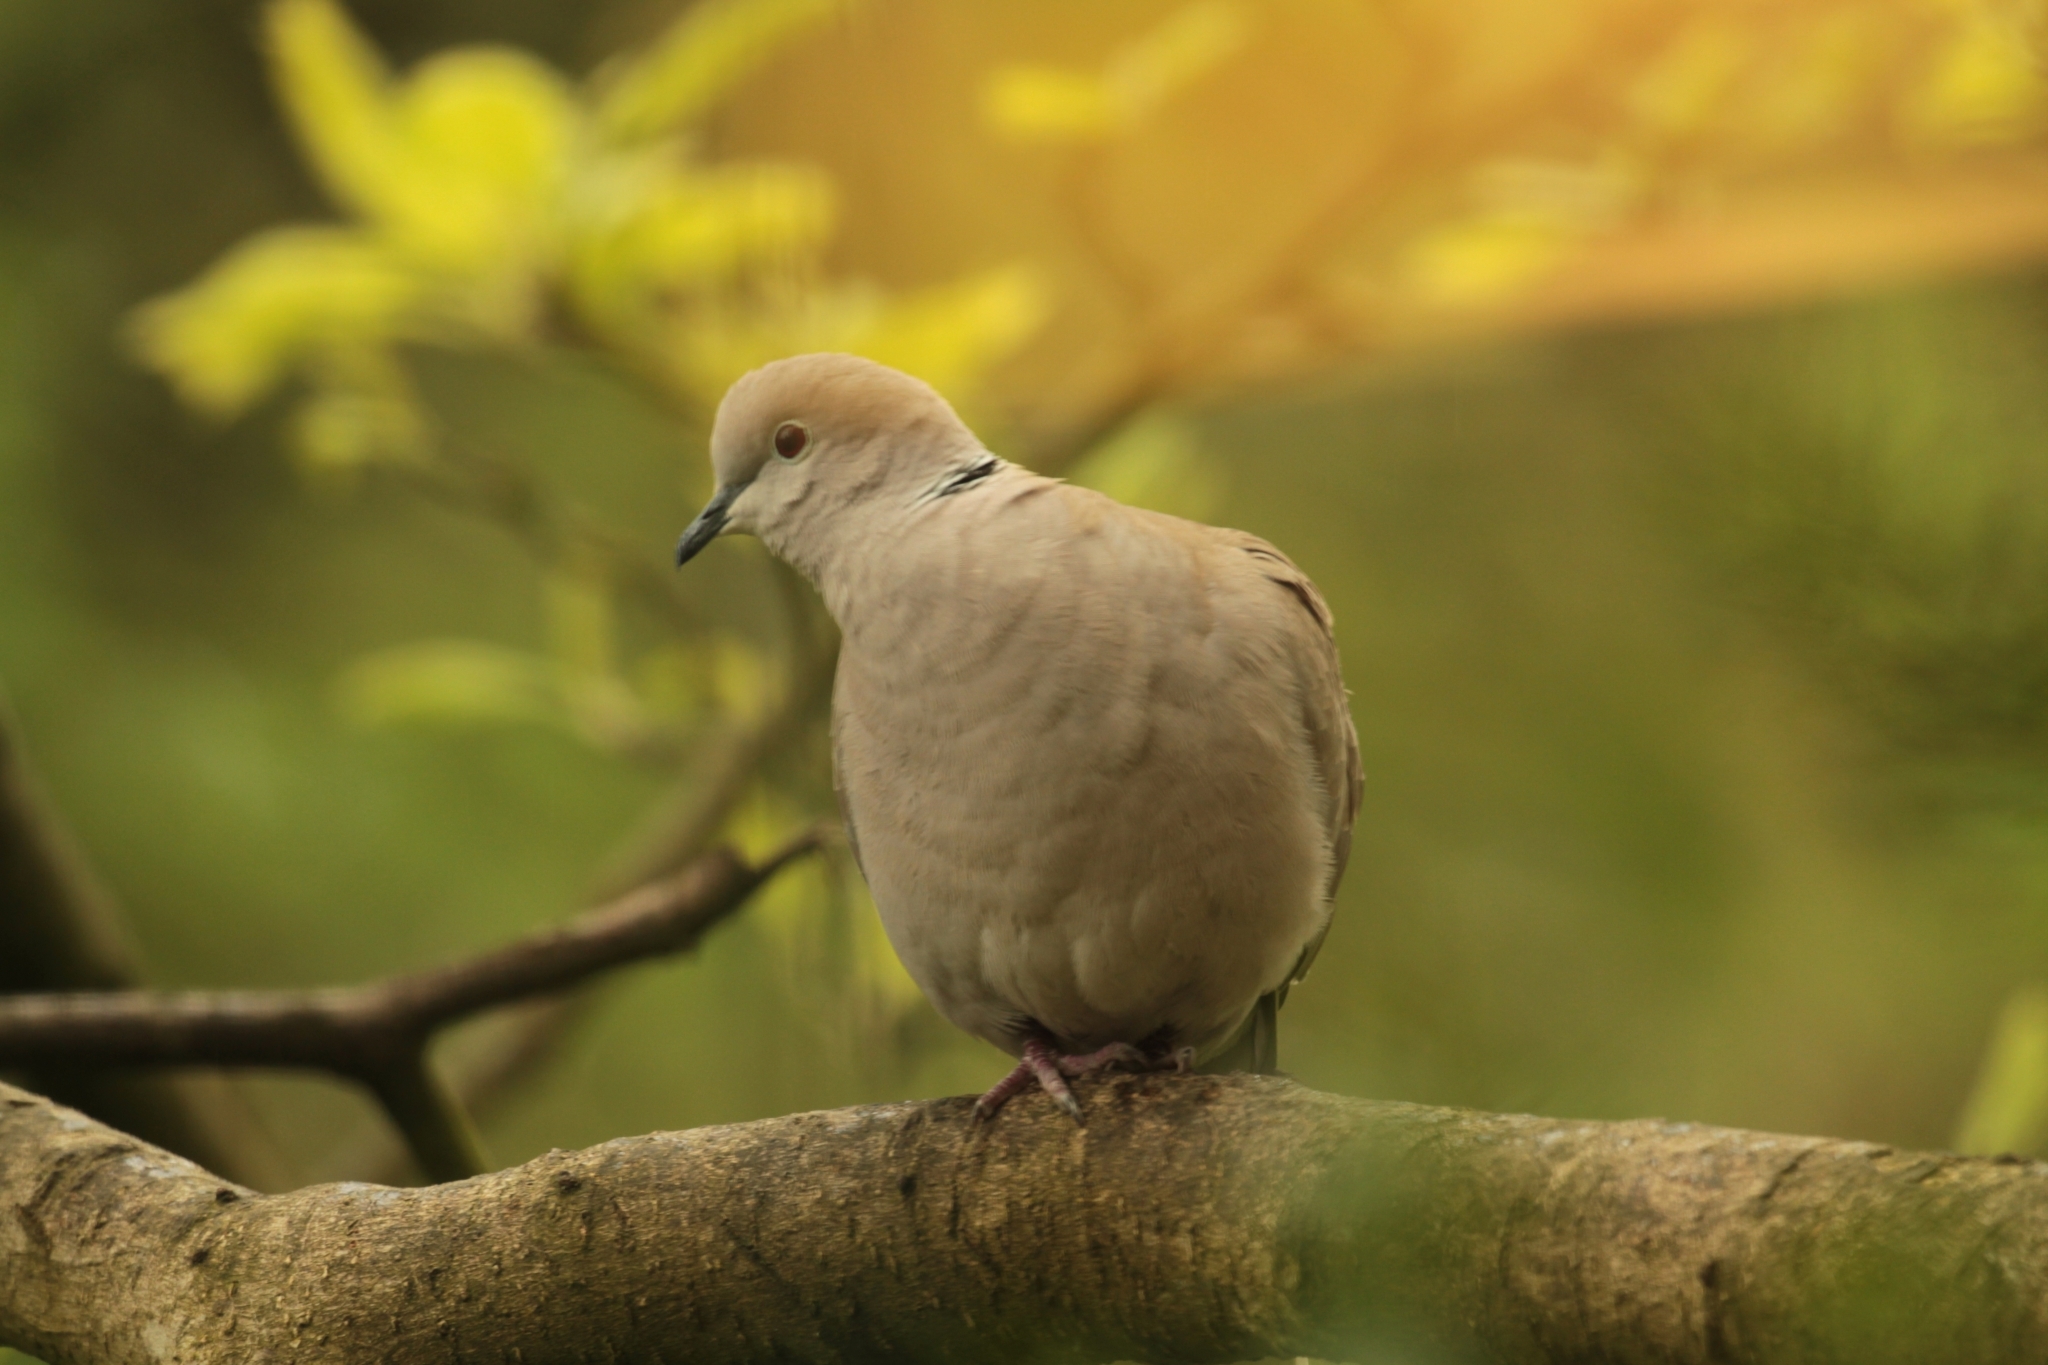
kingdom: Animalia
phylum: Chordata
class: Aves
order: Columbiformes
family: Columbidae
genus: Streptopelia
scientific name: Streptopelia decaocto
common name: Eurasian collared dove
